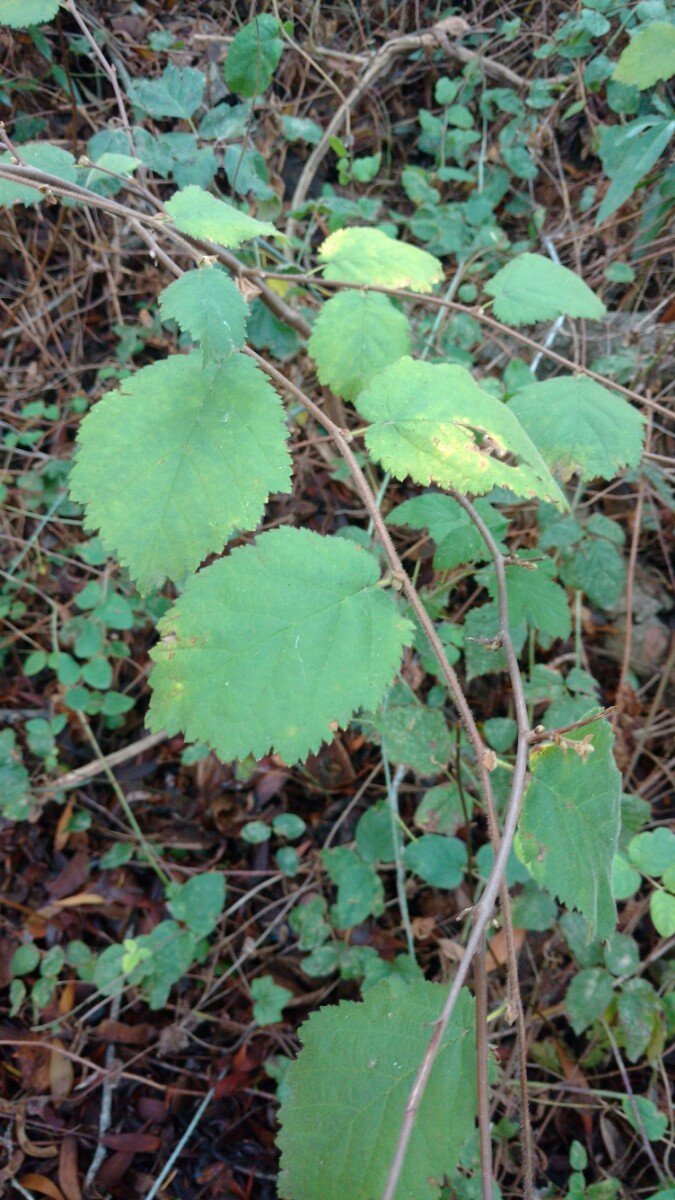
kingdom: Plantae
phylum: Tracheophyta
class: Magnoliopsida
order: Fagales
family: Betulaceae
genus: Corylus
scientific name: Corylus cornuta
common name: Beaked hazel
